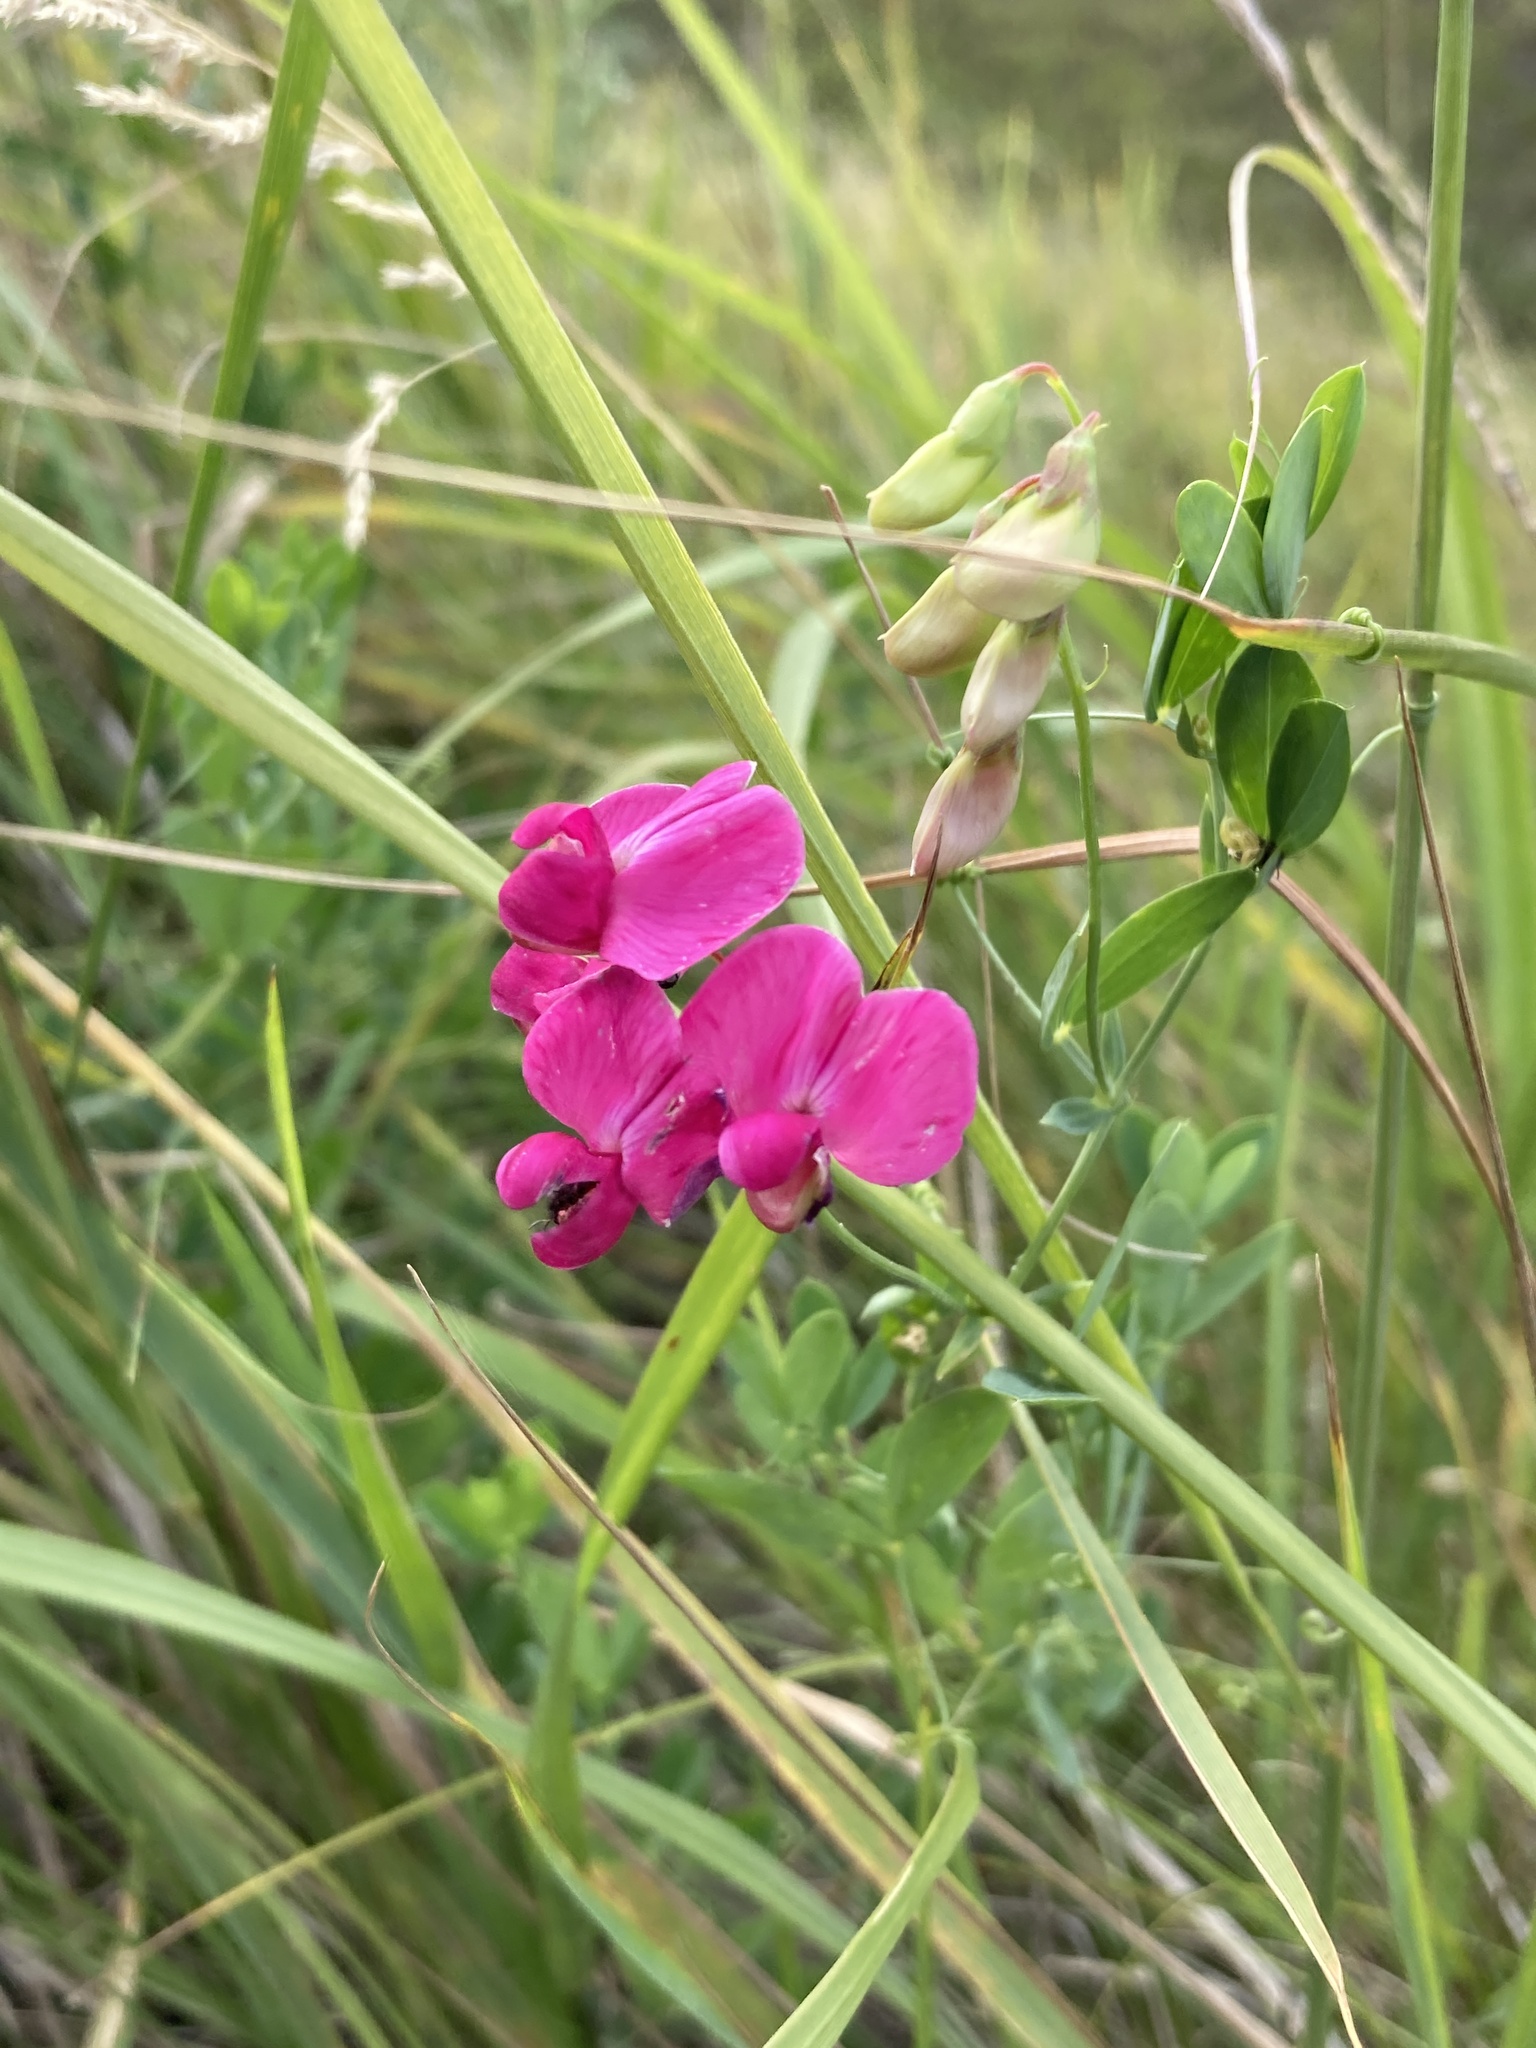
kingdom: Plantae
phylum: Tracheophyta
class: Magnoliopsida
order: Fabales
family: Fabaceae
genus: Lathyrus
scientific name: Lathyrus tuberosus
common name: Tuberous pea
